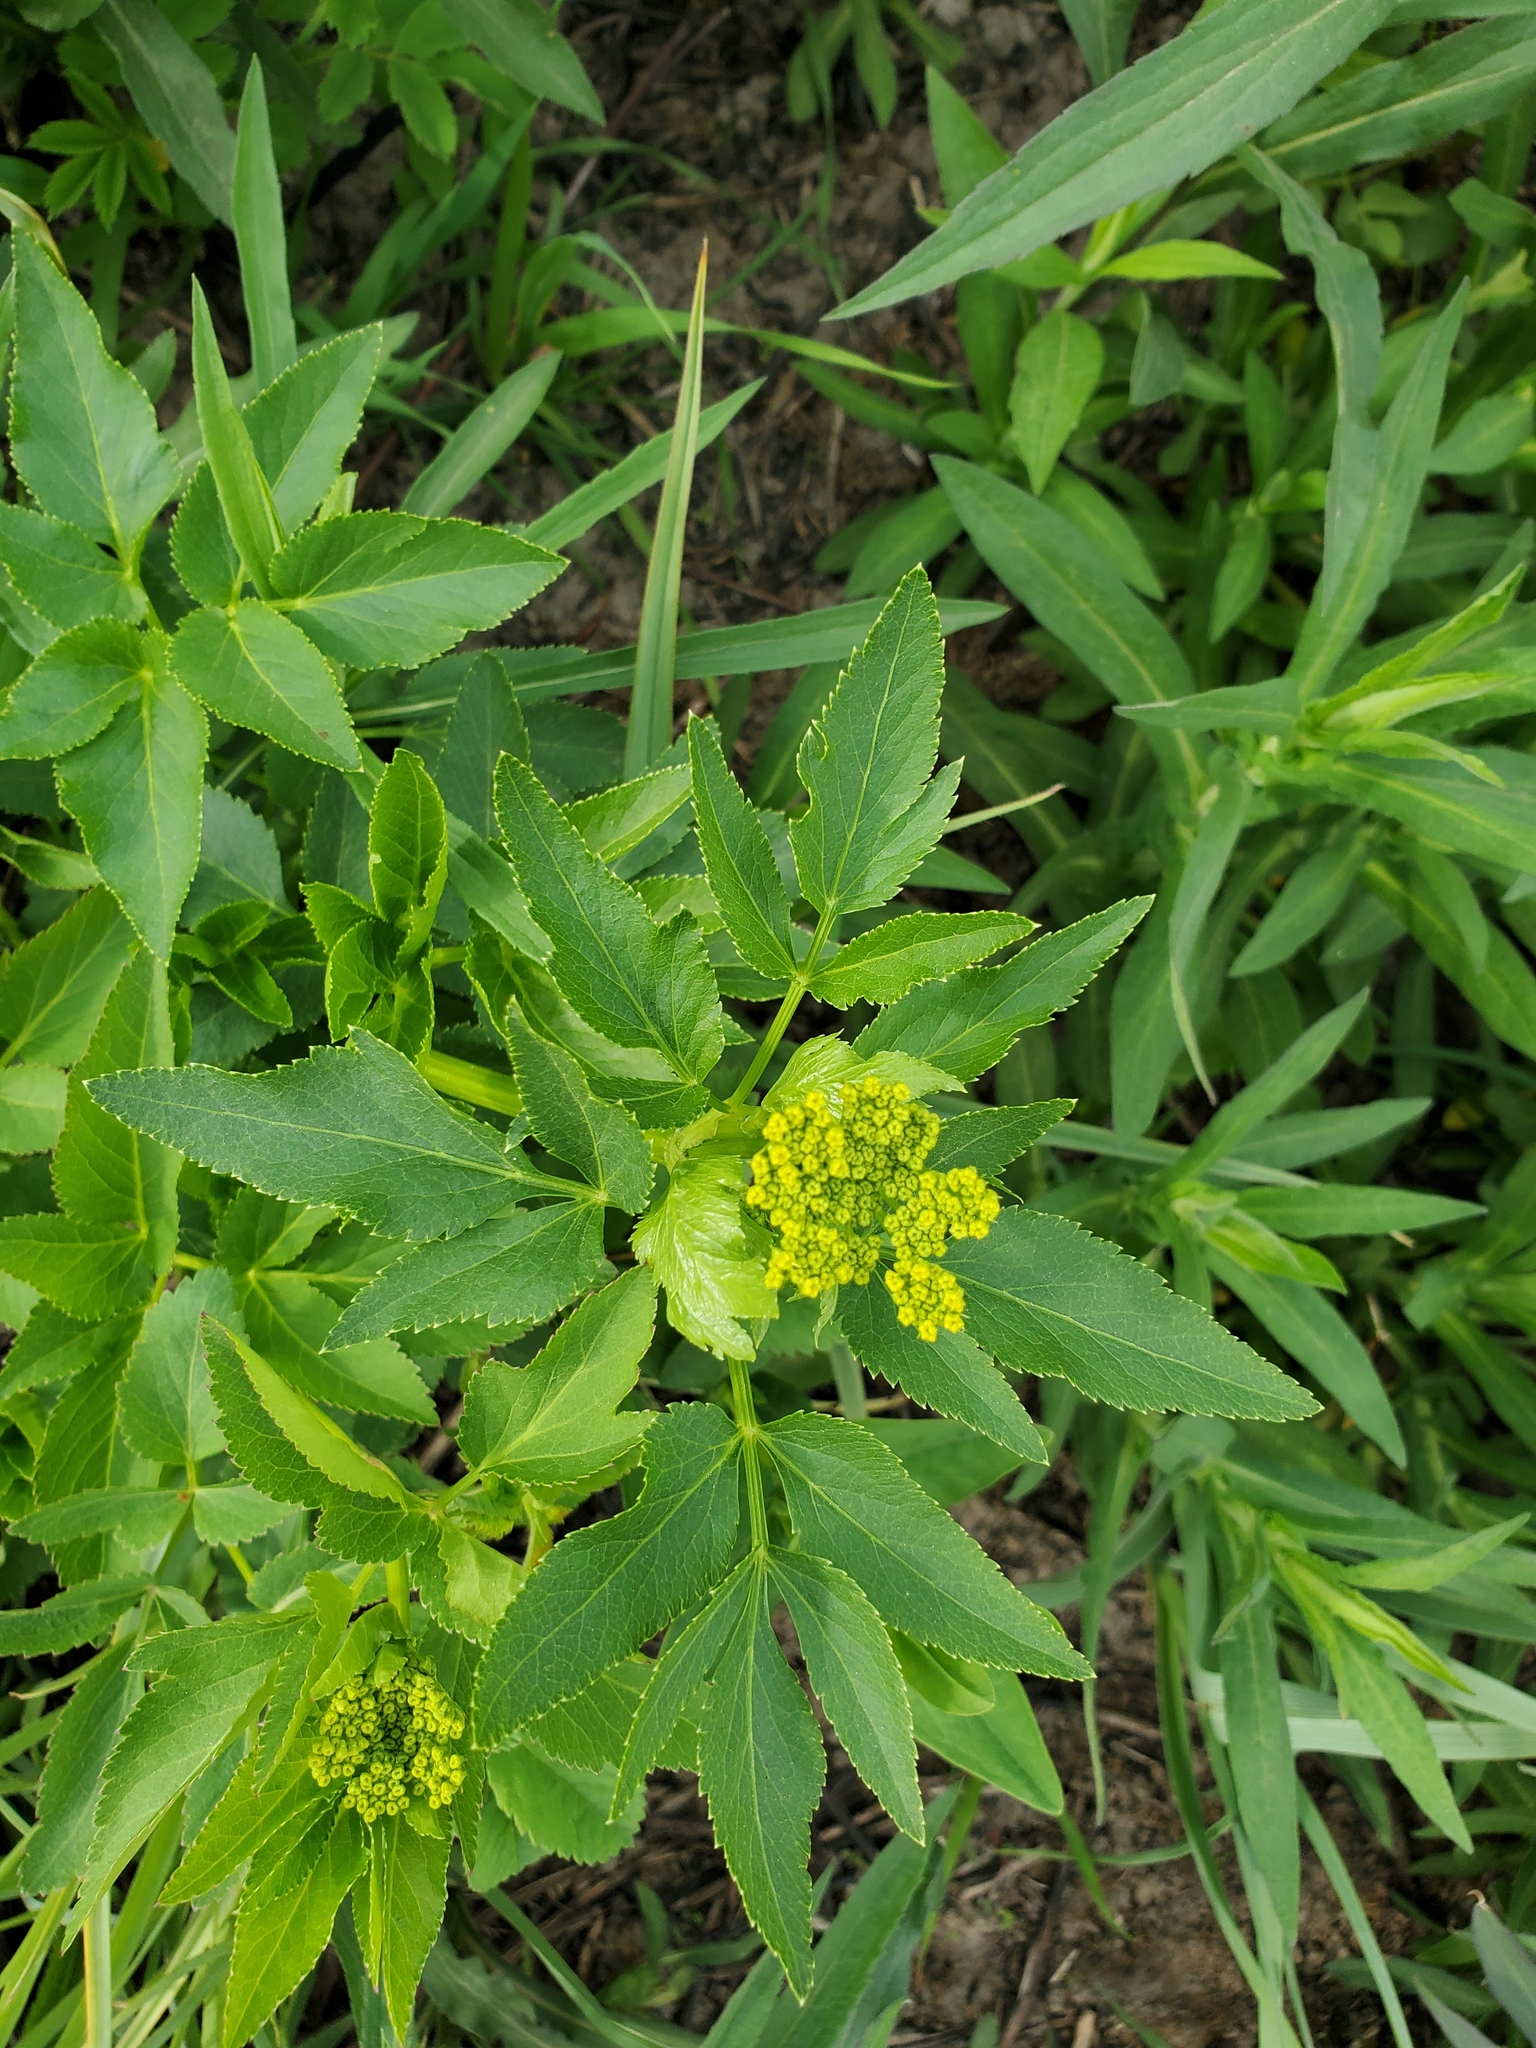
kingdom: Plantae
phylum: Tracheophyta
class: Magnoliopsida
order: Apiales
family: Apiaceae
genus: Zizia
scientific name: Zizia aurea
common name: Golden alexanders
